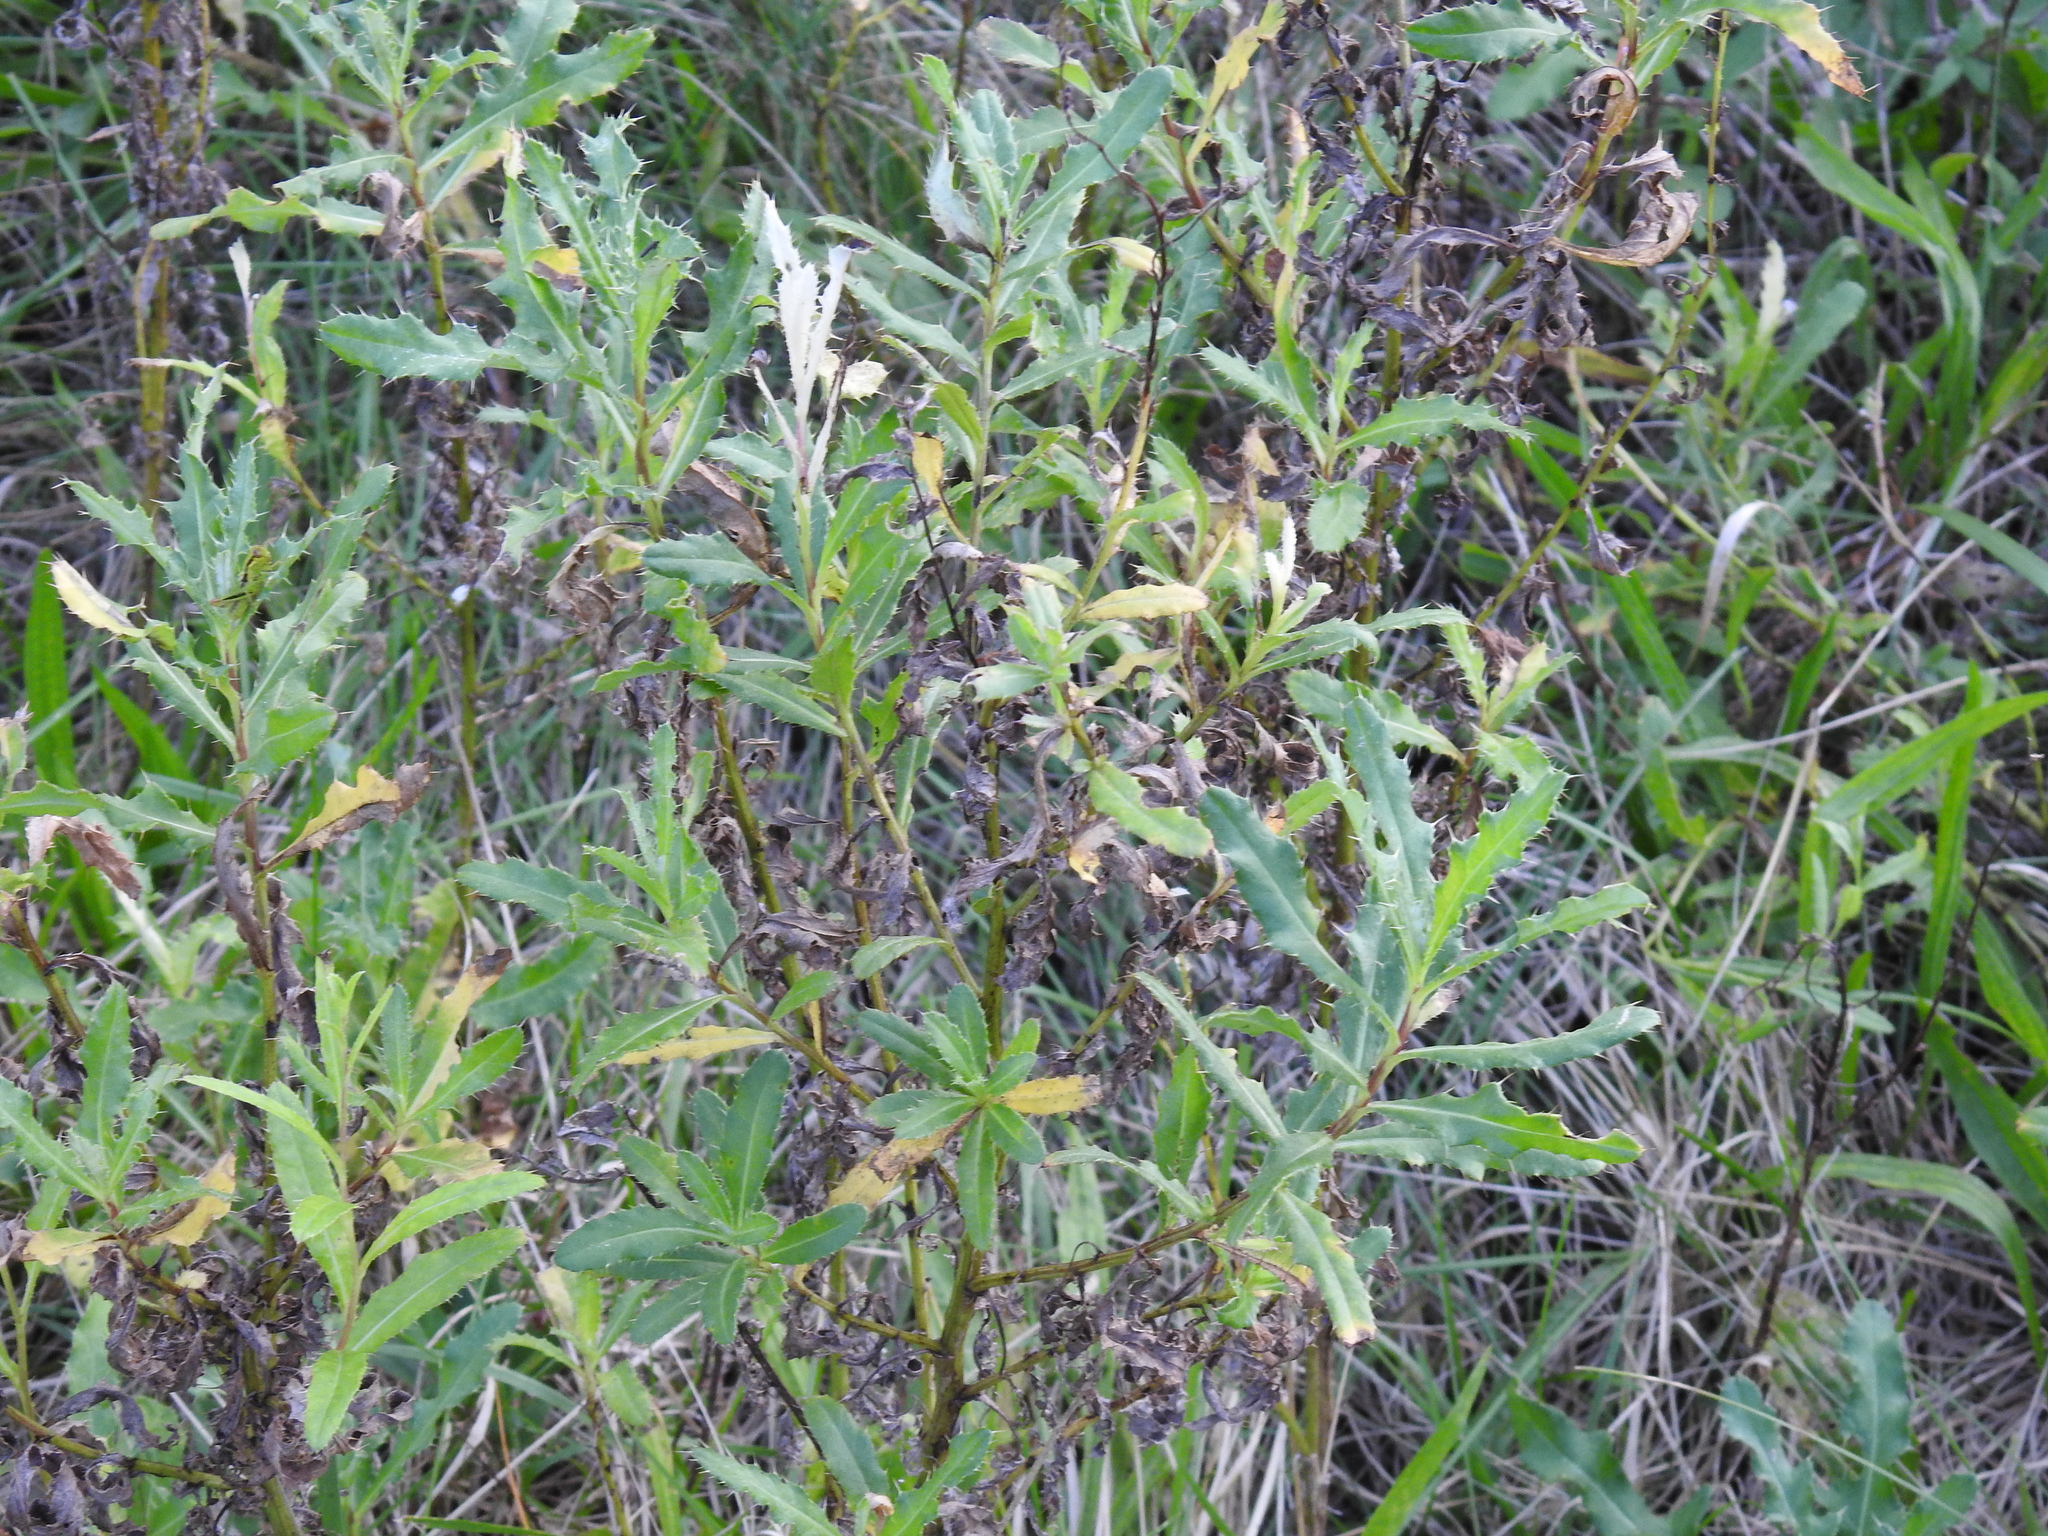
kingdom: Plantae
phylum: Tracheophyta
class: Magnoliopsida
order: Asterales
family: Asteraceae
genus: Cirsium
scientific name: Cirsium arvense
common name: Creeping thistle
